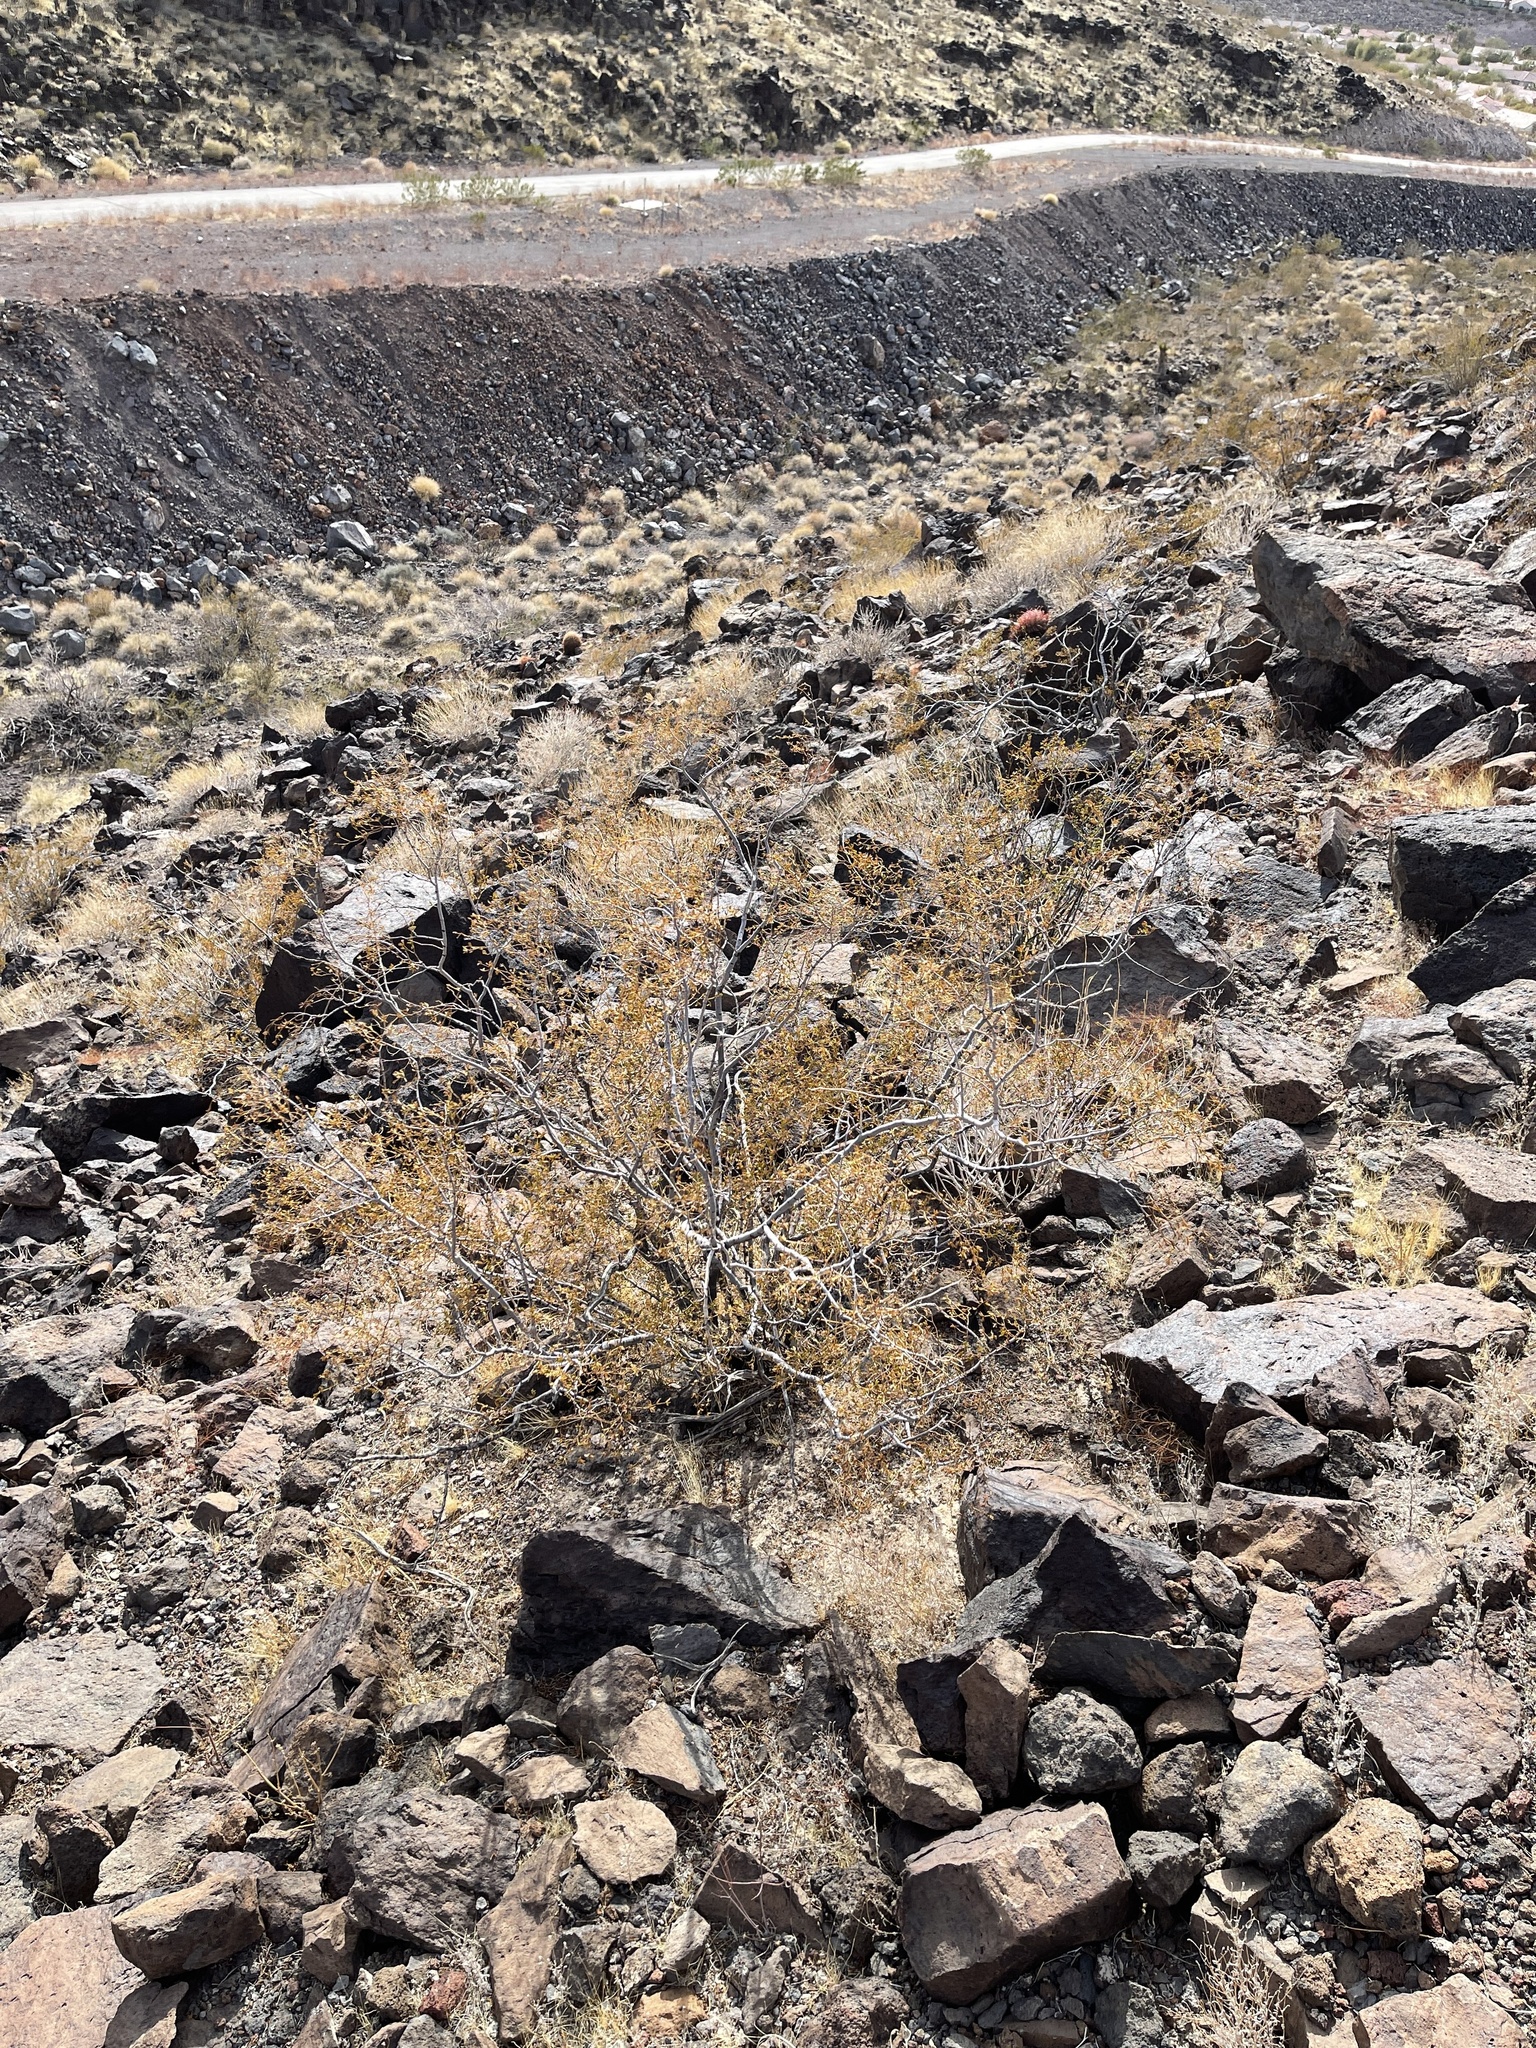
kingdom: Plantae
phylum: Tracheophyta
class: Magnoliopsida
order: Zygophyllales
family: Zygophyllaceae
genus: Larrea
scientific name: Larrea tridentata
